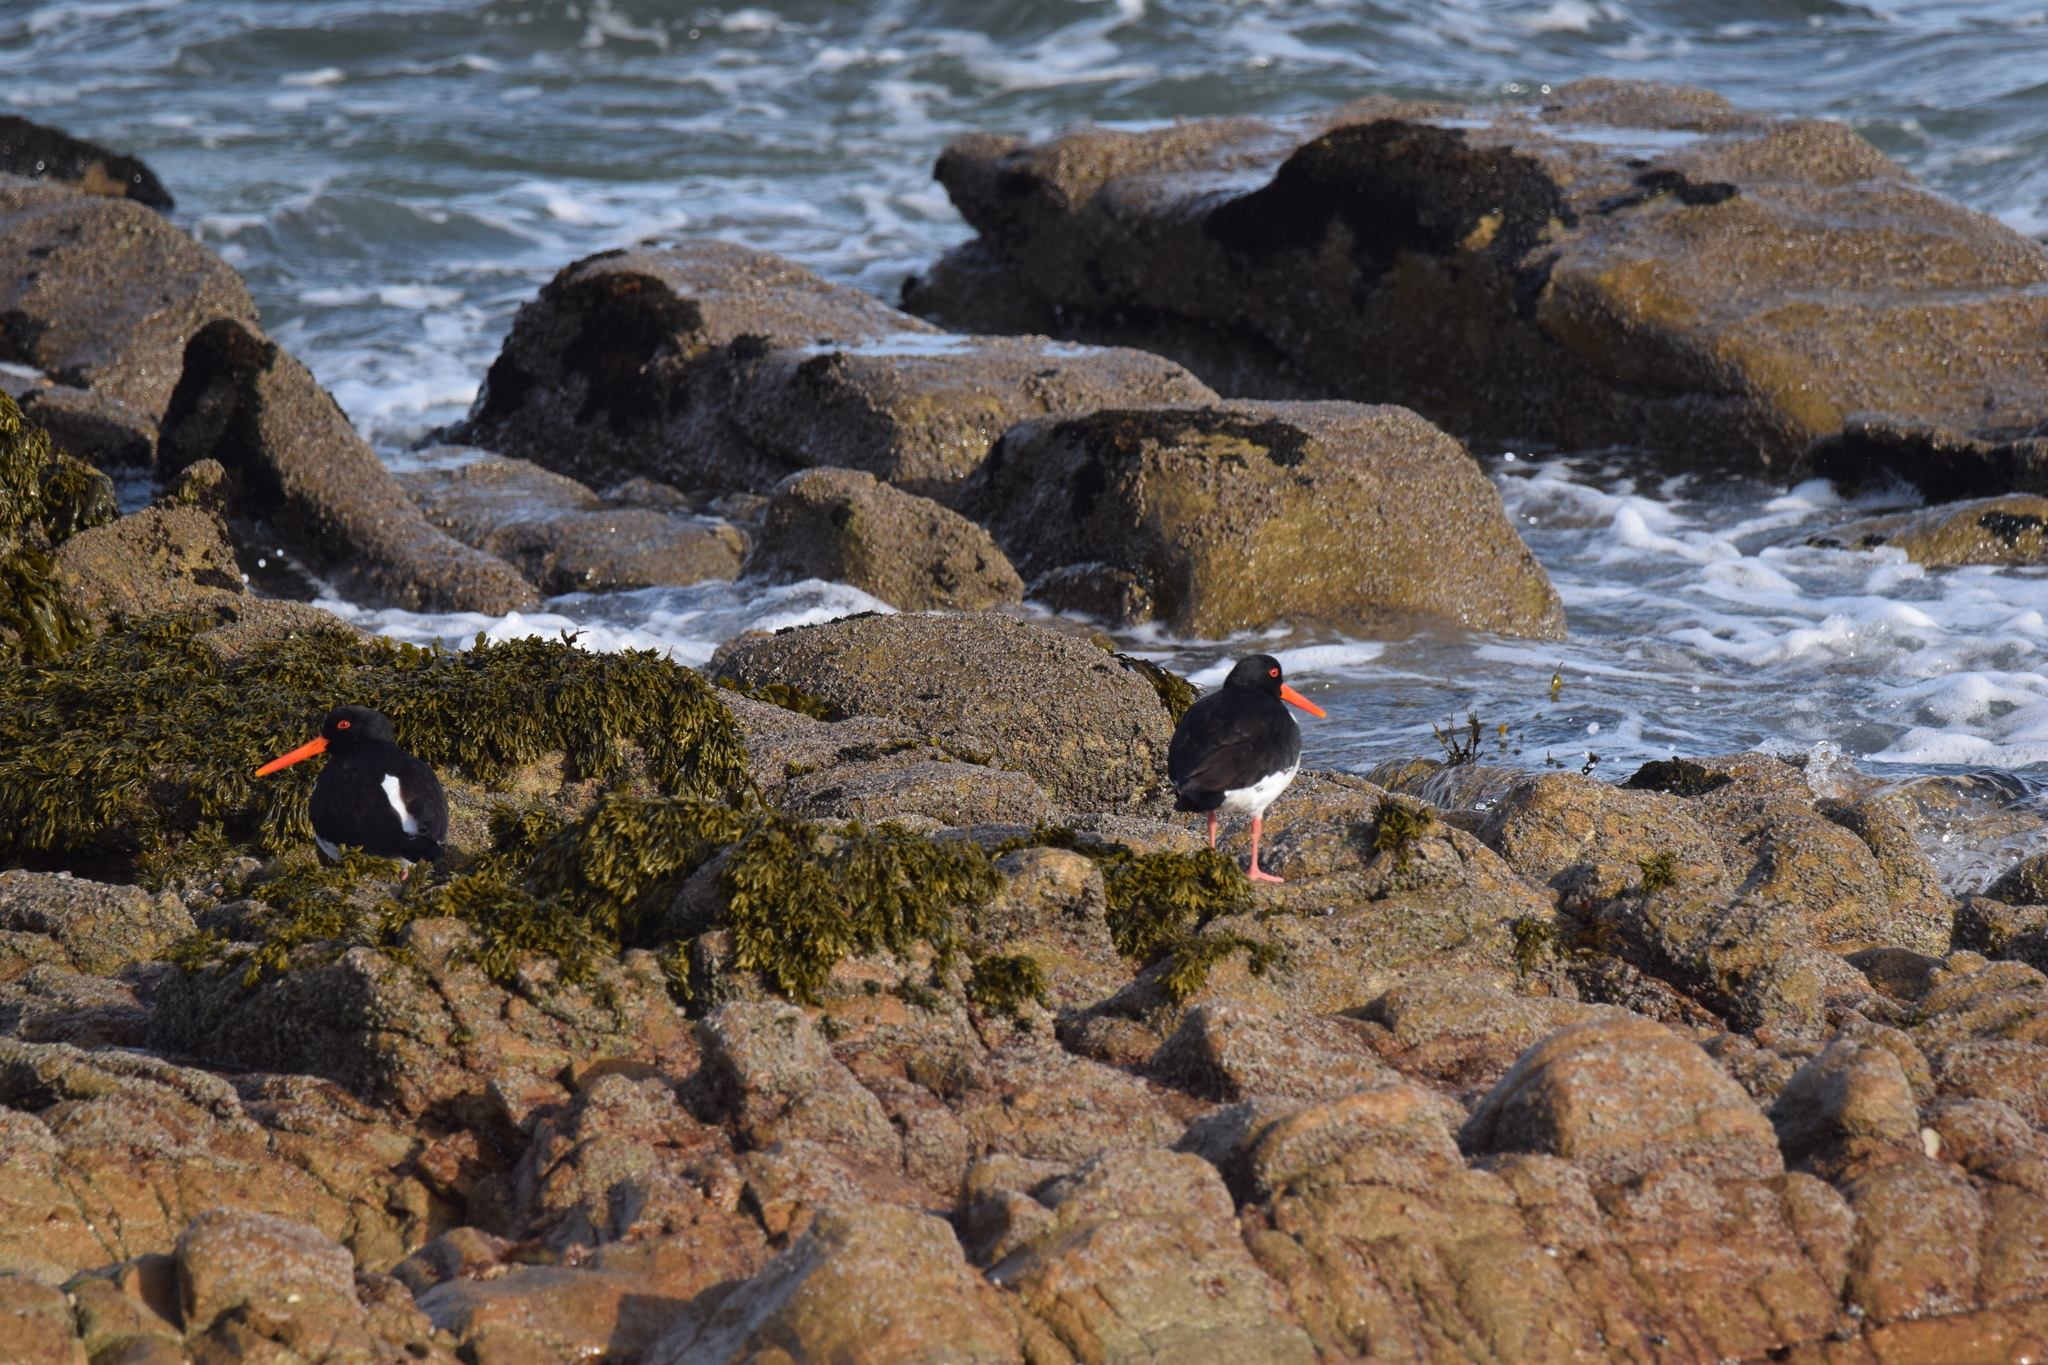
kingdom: Animalia
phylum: Chordata
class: Aves
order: Charadriiformes
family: Haematopodidae
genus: Haematopus
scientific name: Haematopus ostralegus
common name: Eurasian oystercatcher
